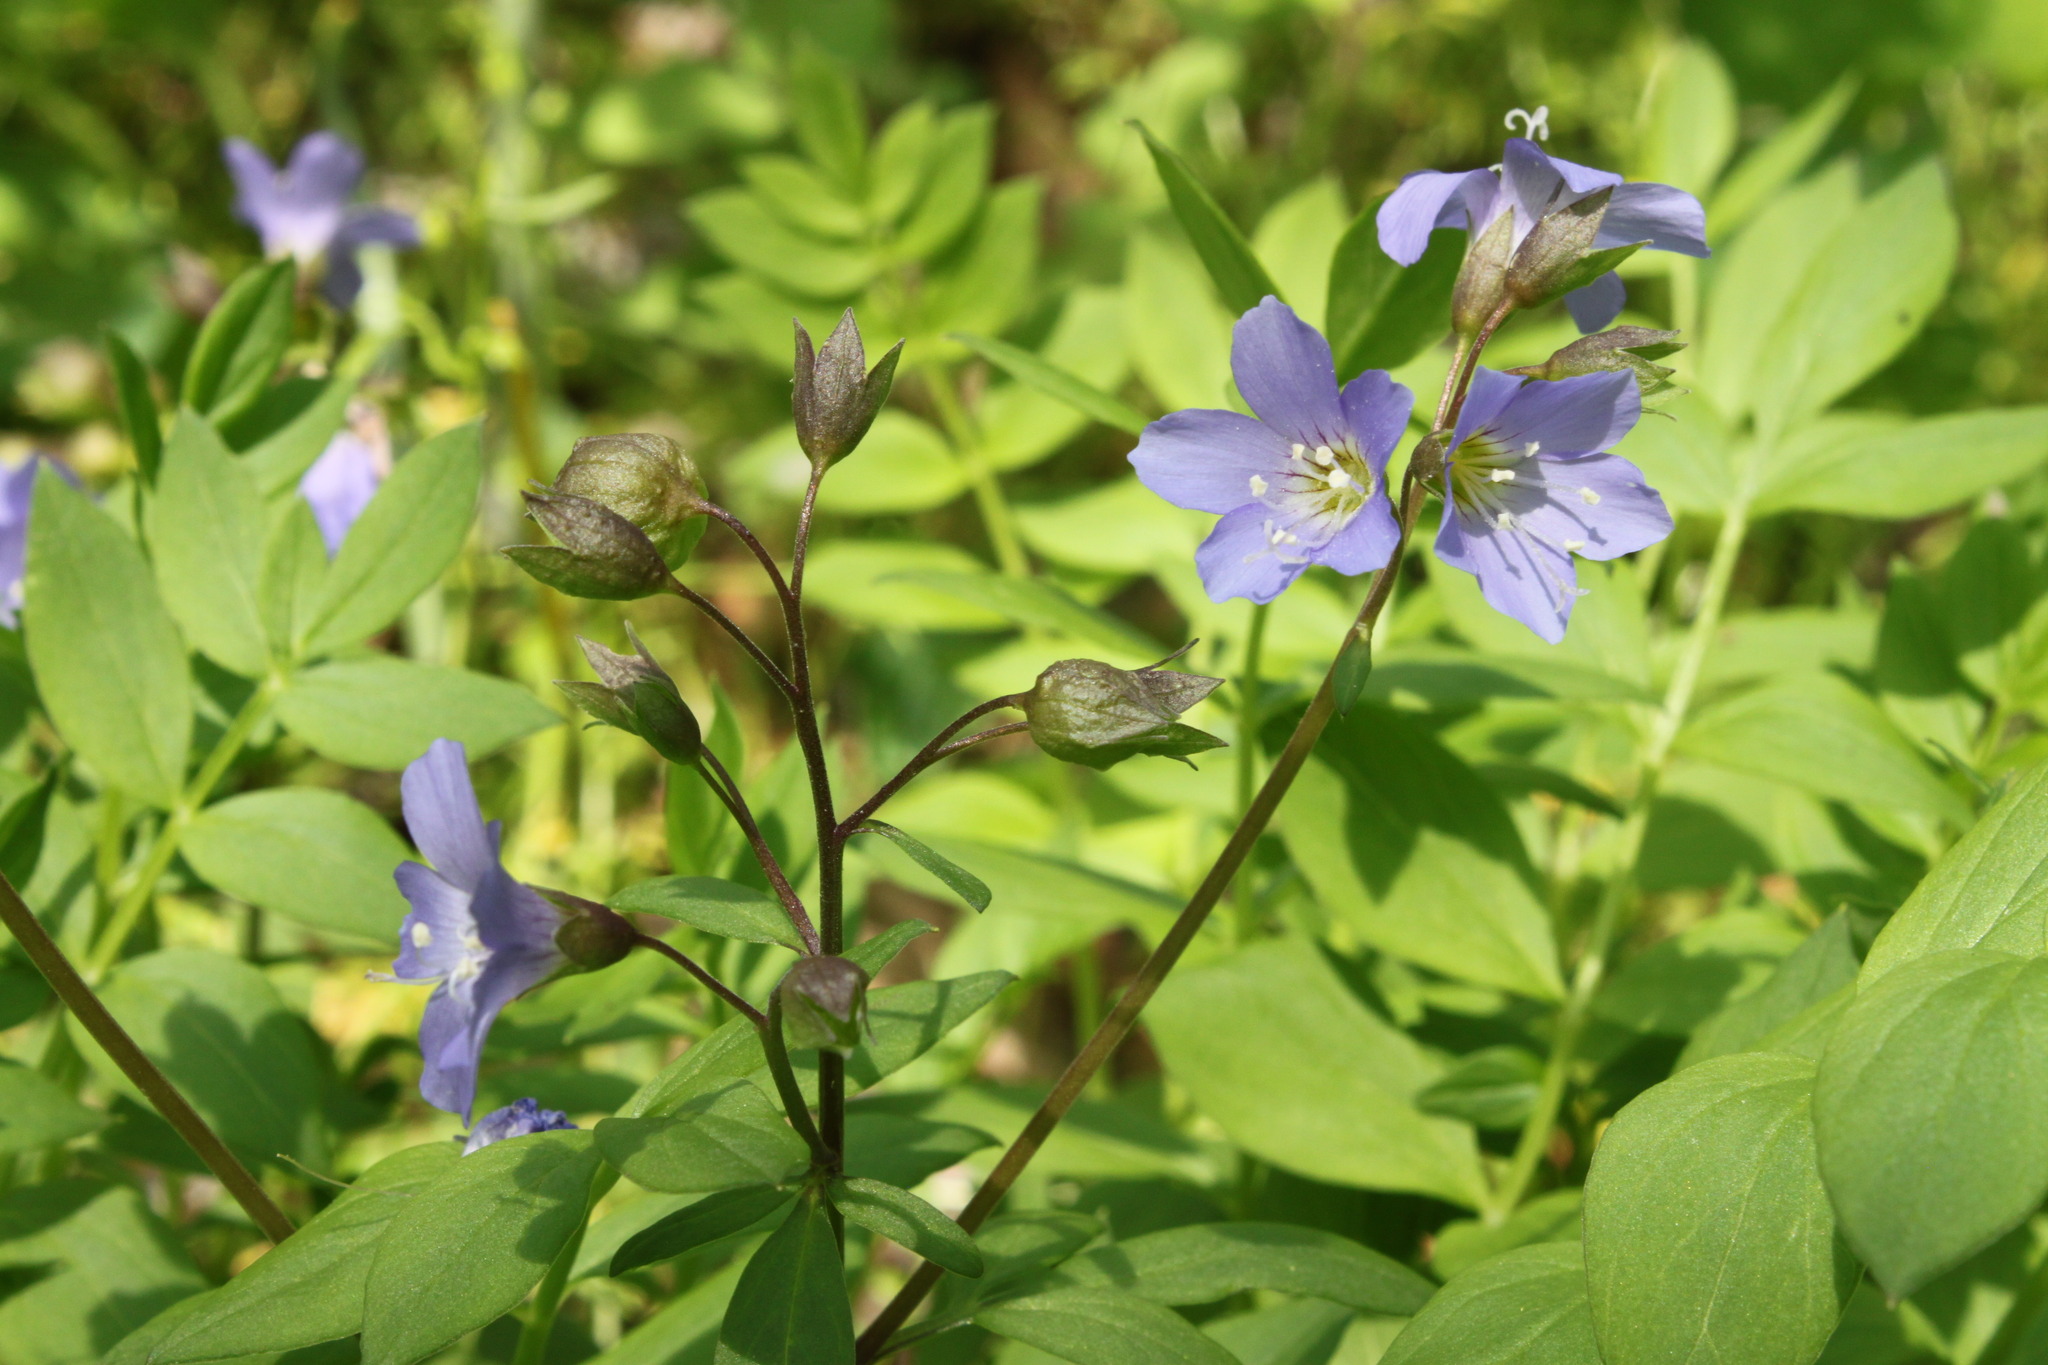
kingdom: Plantae
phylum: Tracheophyta
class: Magnoliopsida
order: Ericales
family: Polemoniaceae
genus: Polemonium
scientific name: Polemonium reptans
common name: Creeping jacob's-ladder
